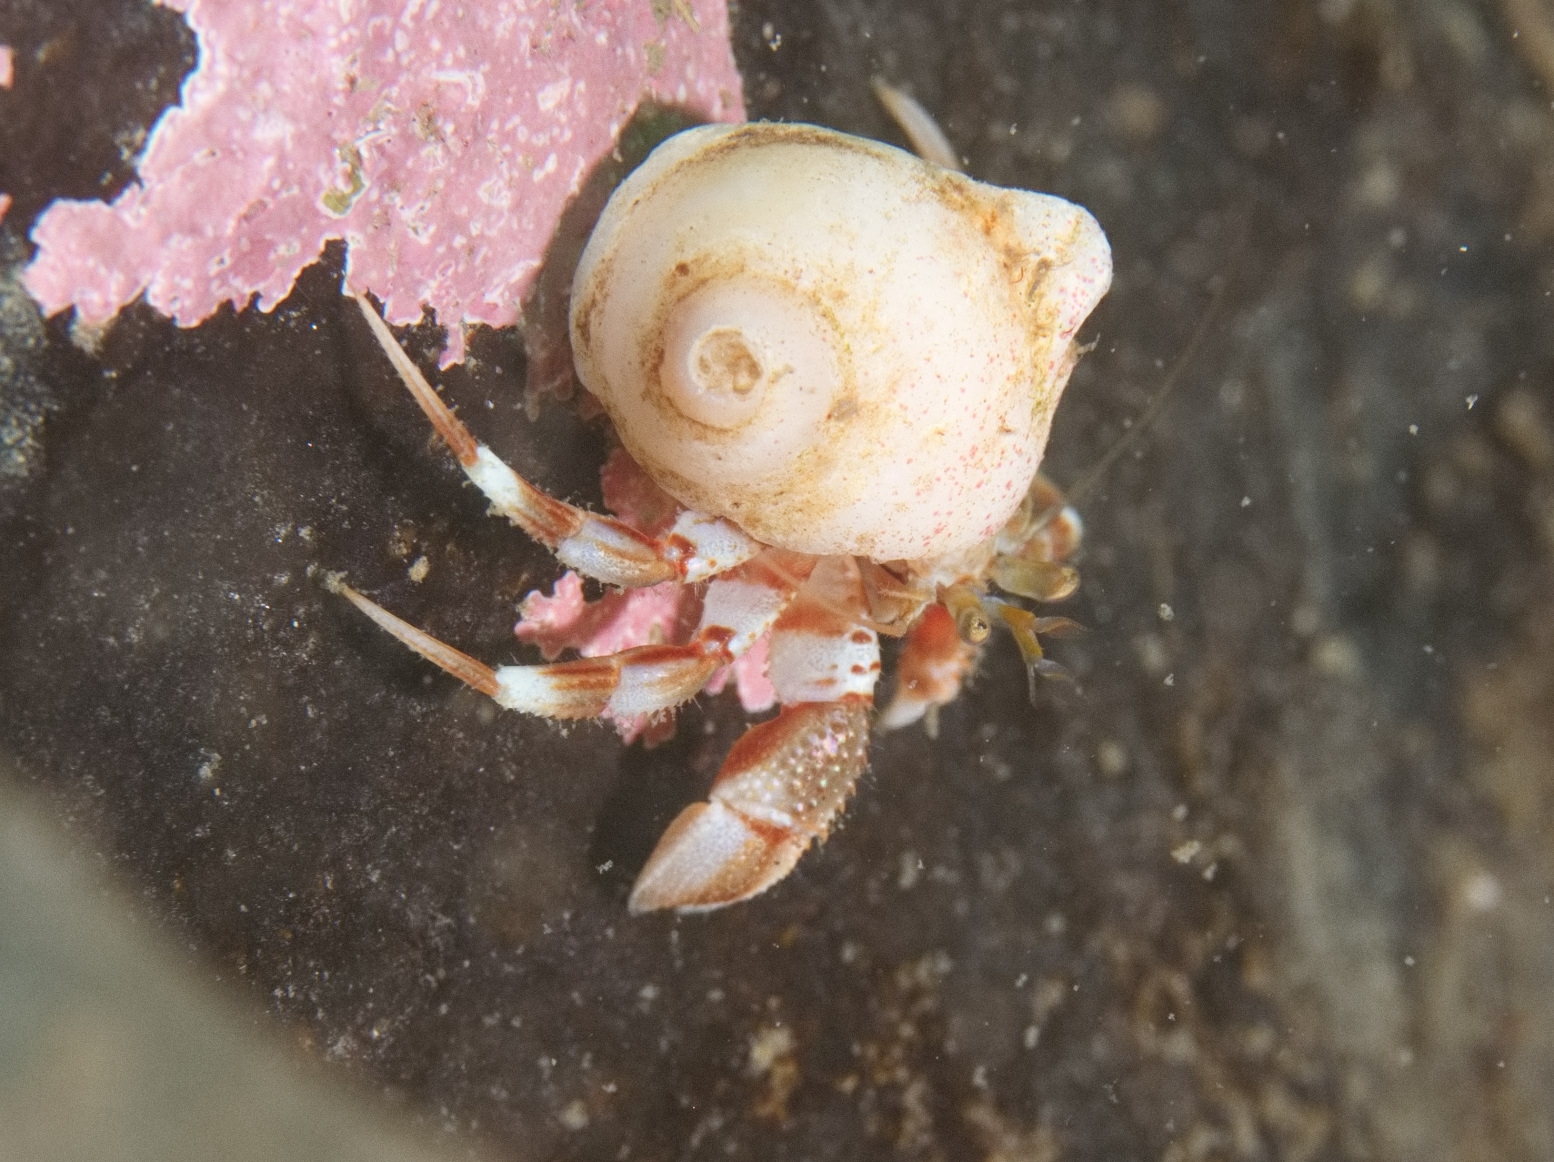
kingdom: Animalia
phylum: Arthropoda
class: Malacostraca
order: Decapoda
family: Paguridae
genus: Pagurus
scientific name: Pagurus bernhardus
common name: Hermit crab
